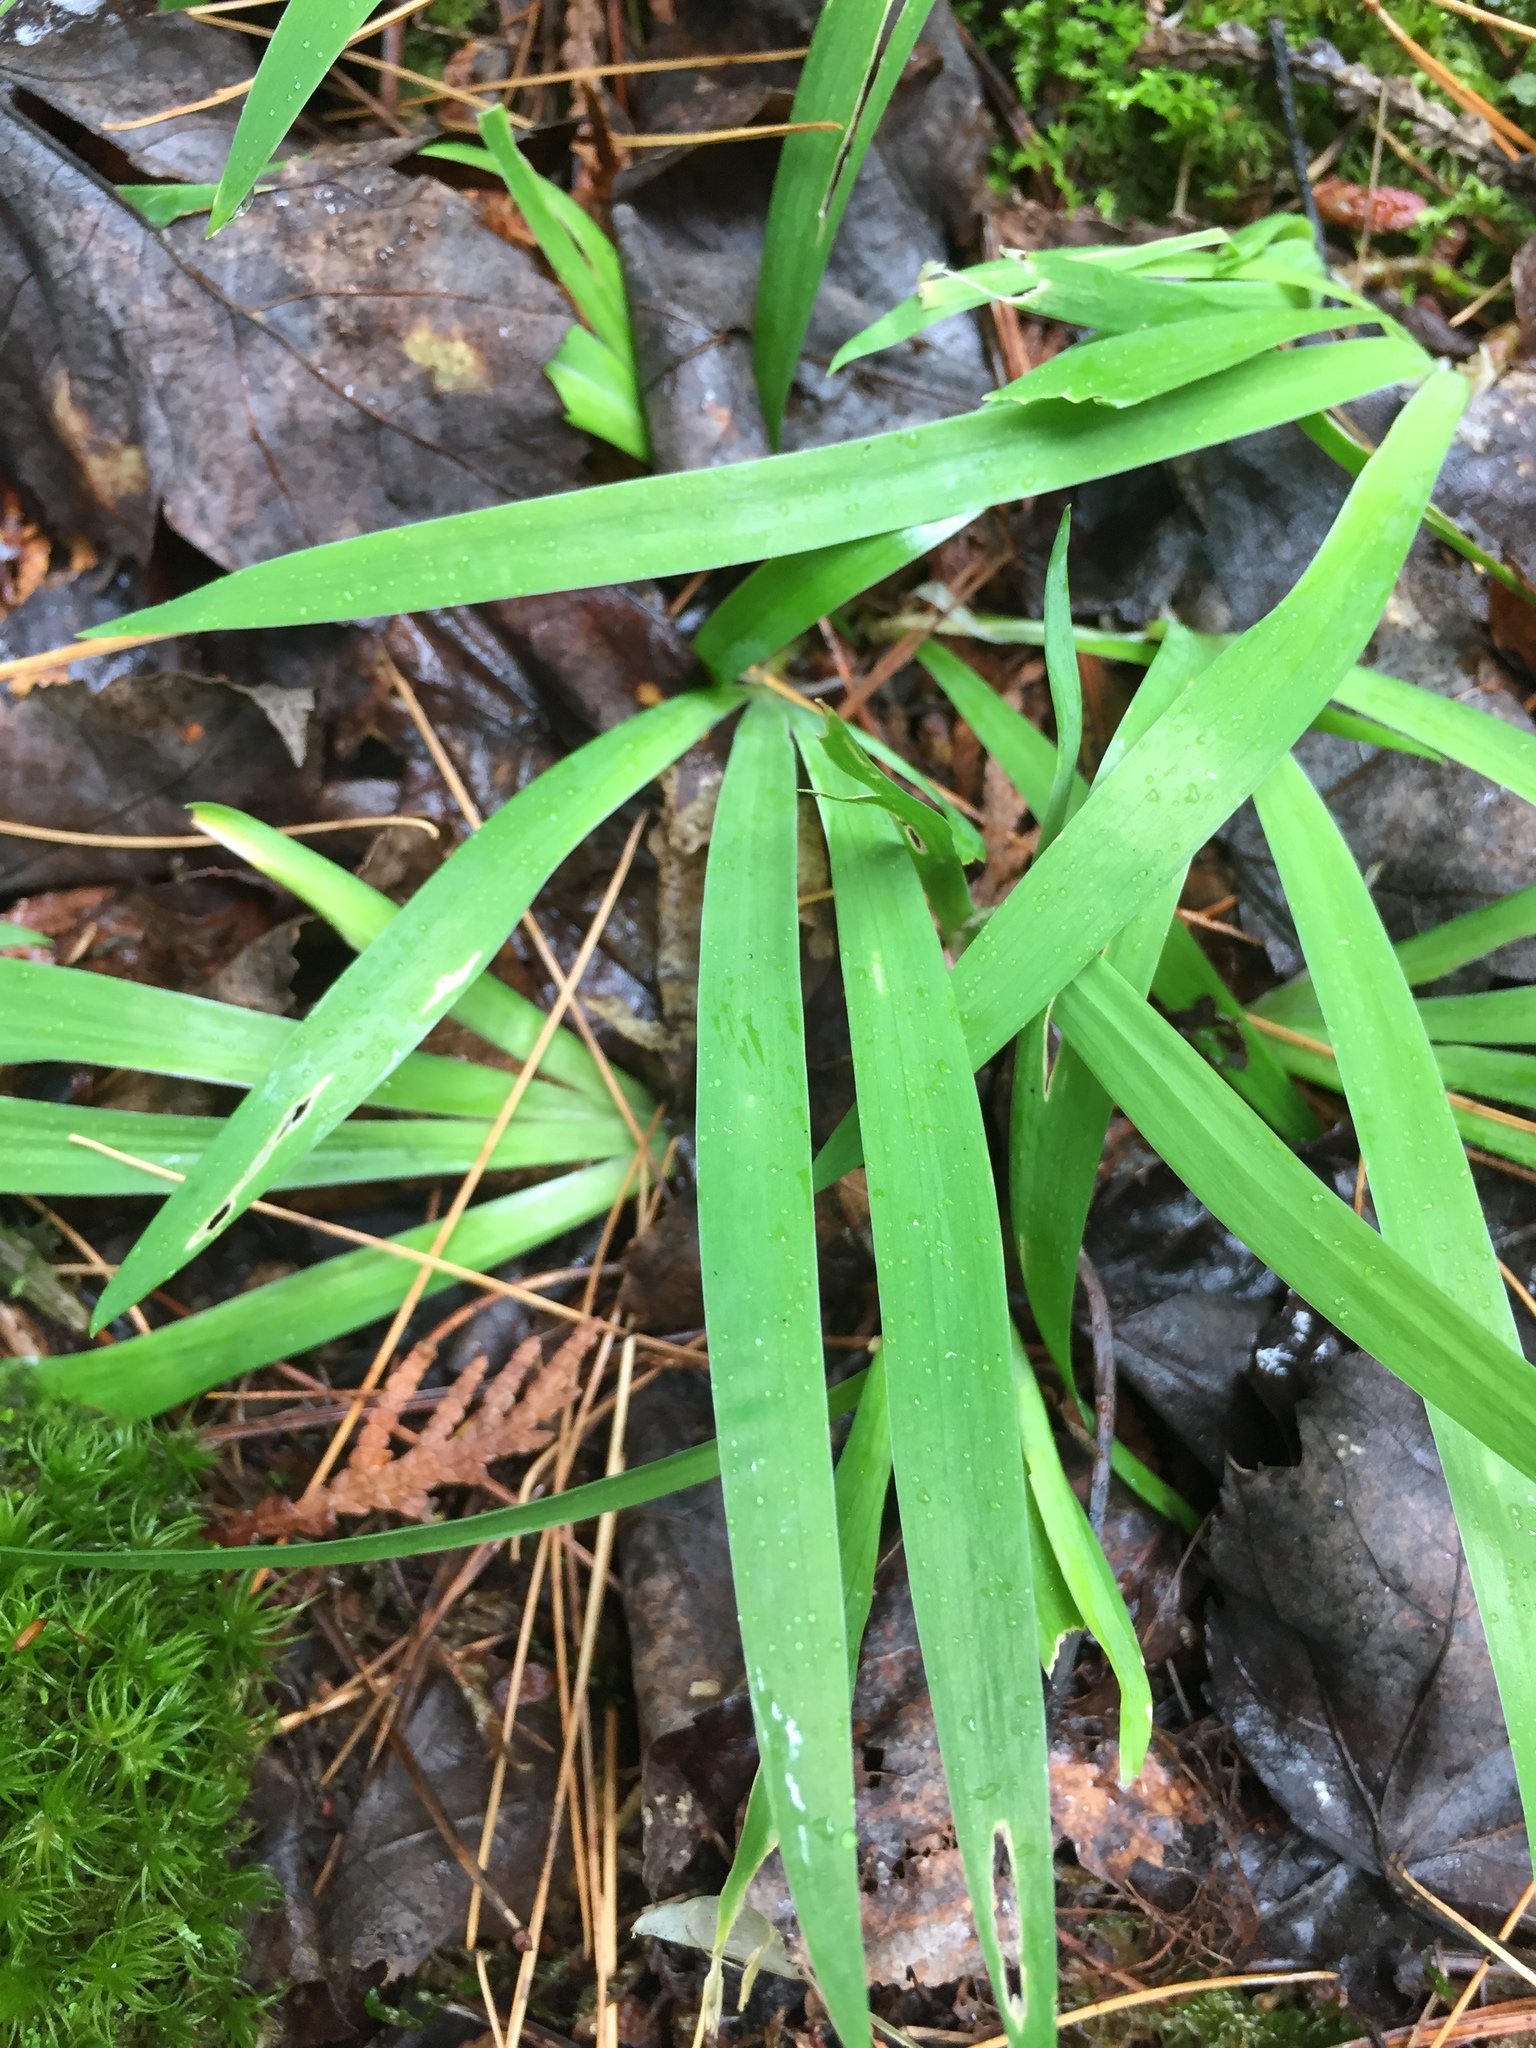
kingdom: Plantae
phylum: Tracheophyta
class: Liliopsida
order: Asparagales
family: Iridaceae
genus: Iris
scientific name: Iris lacustris
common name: Dwarf lake iris
